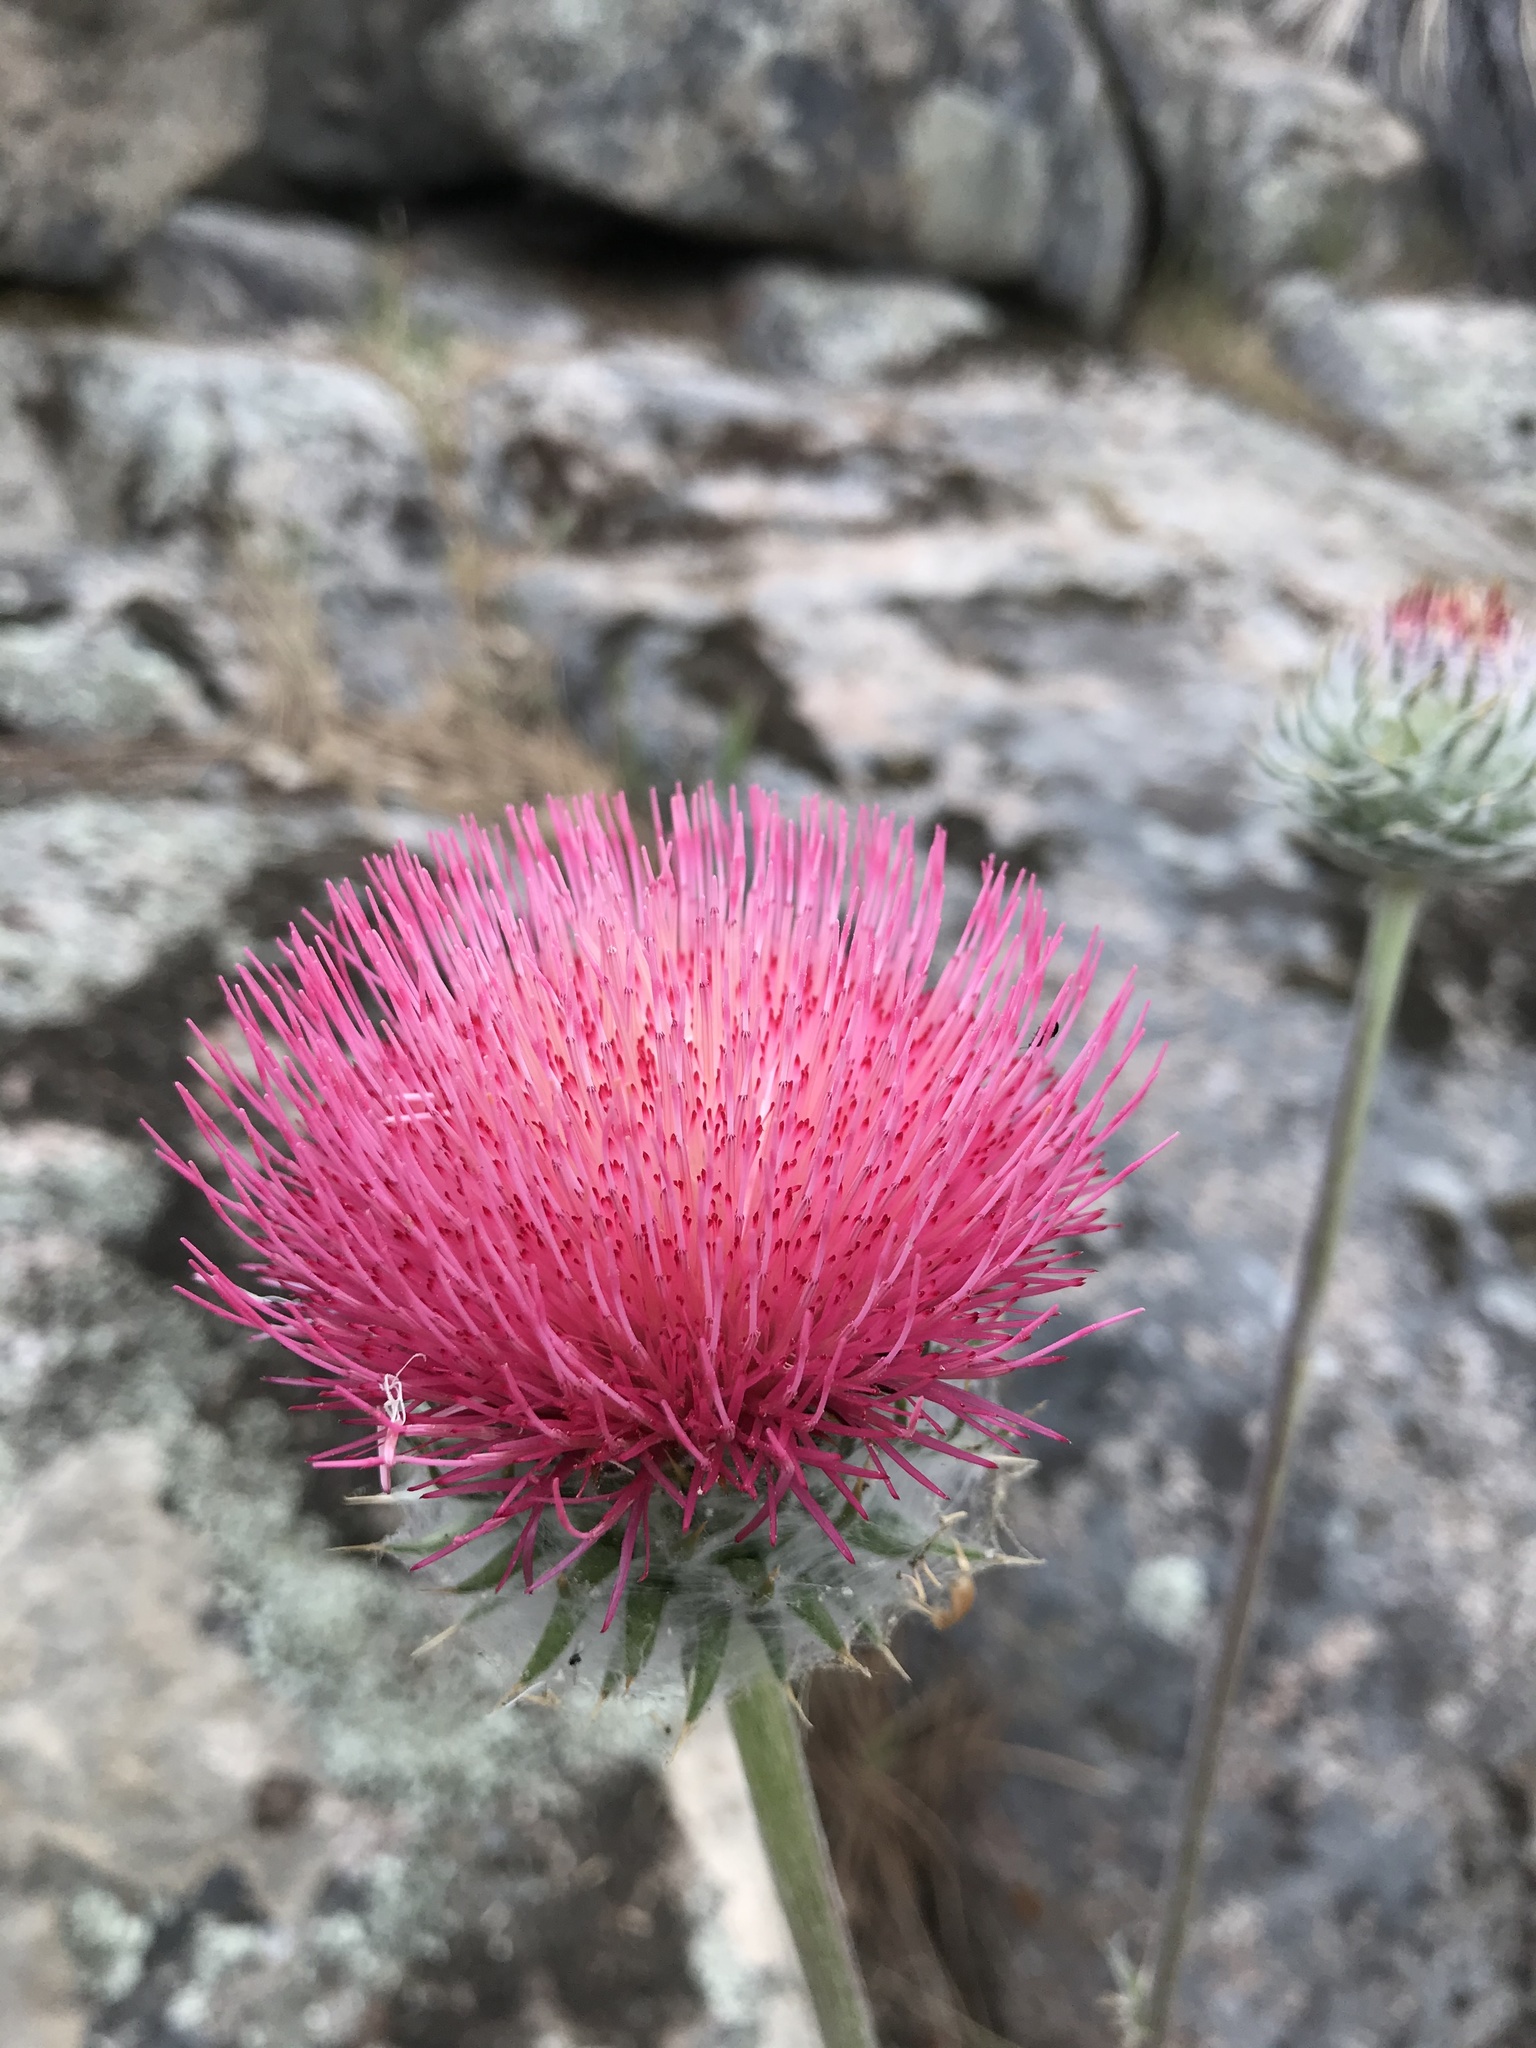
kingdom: Plantae
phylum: Tracheophyta
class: Magnoliopsida
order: Asterales
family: Asteraceae
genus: Cirsium
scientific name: Cirsium occidentale
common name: Western thistle
